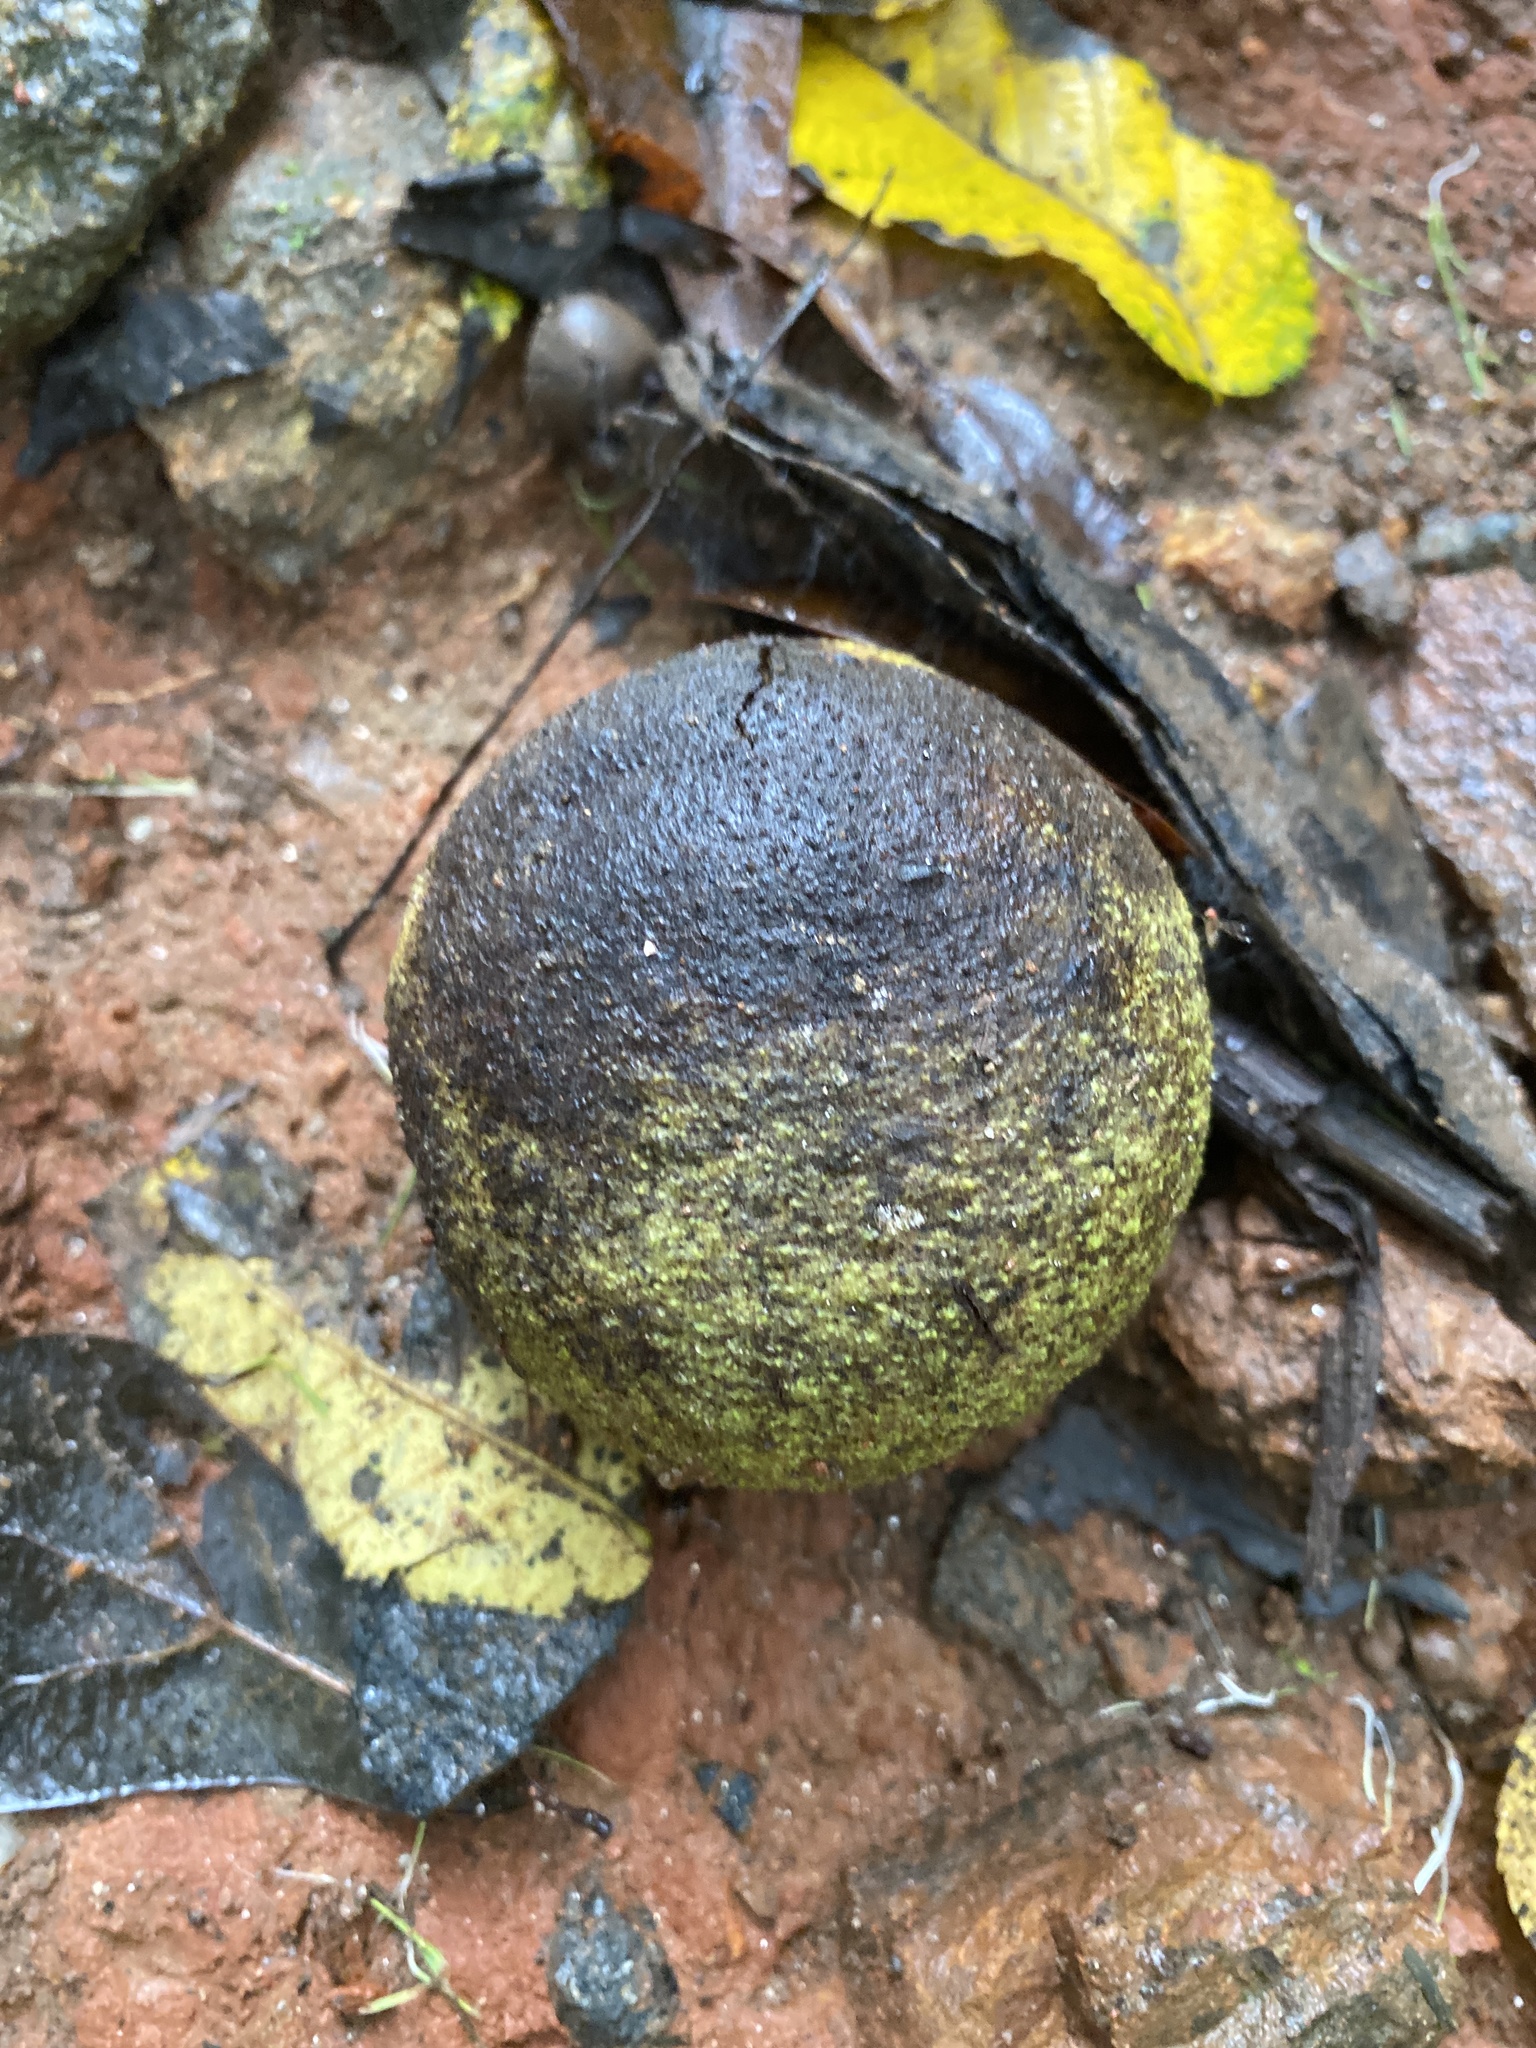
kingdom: Plantae
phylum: Tracheophyta
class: Magnoliopsida
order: Fagales
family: Juglandaceae
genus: Juglans
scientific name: Juglans nigra
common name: Black walnut
